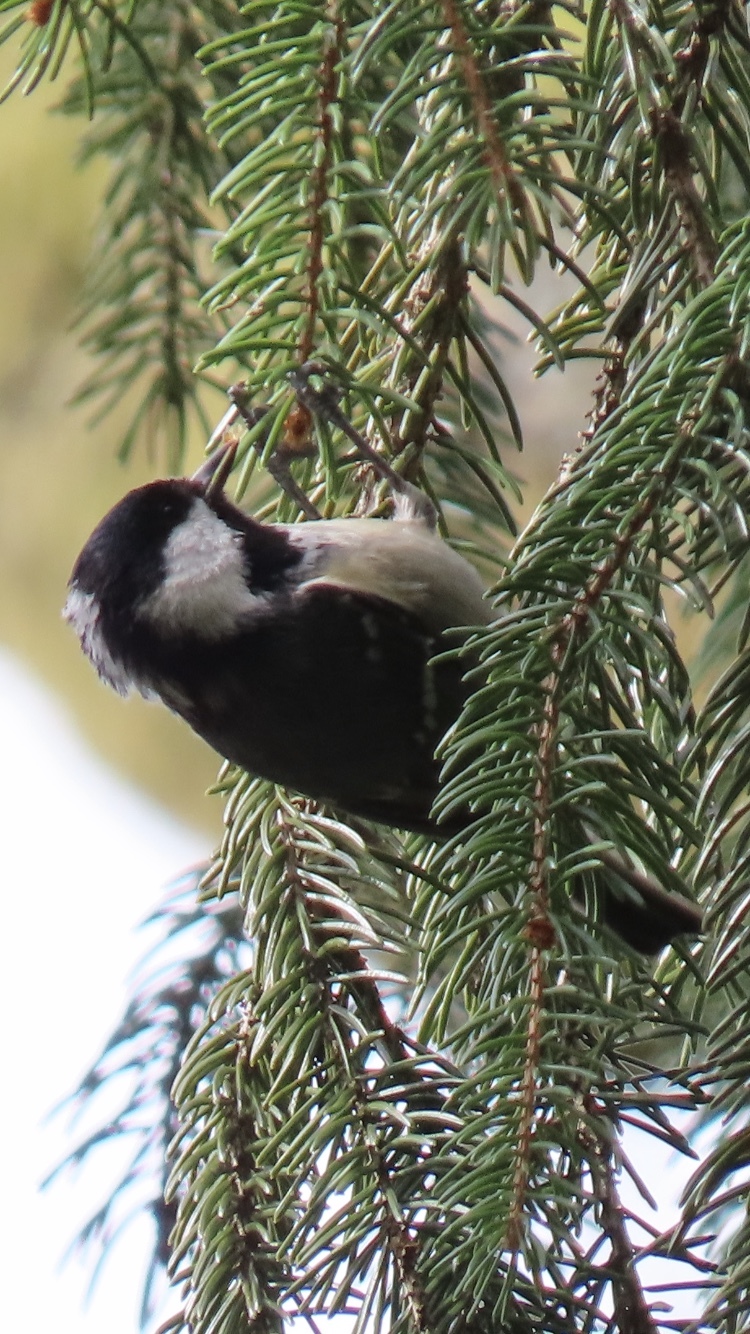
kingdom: Animalia
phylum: Chordata
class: Aves
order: Passeriformes
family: Paridae
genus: Periparus
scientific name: Periparus ater
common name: Coal tit
